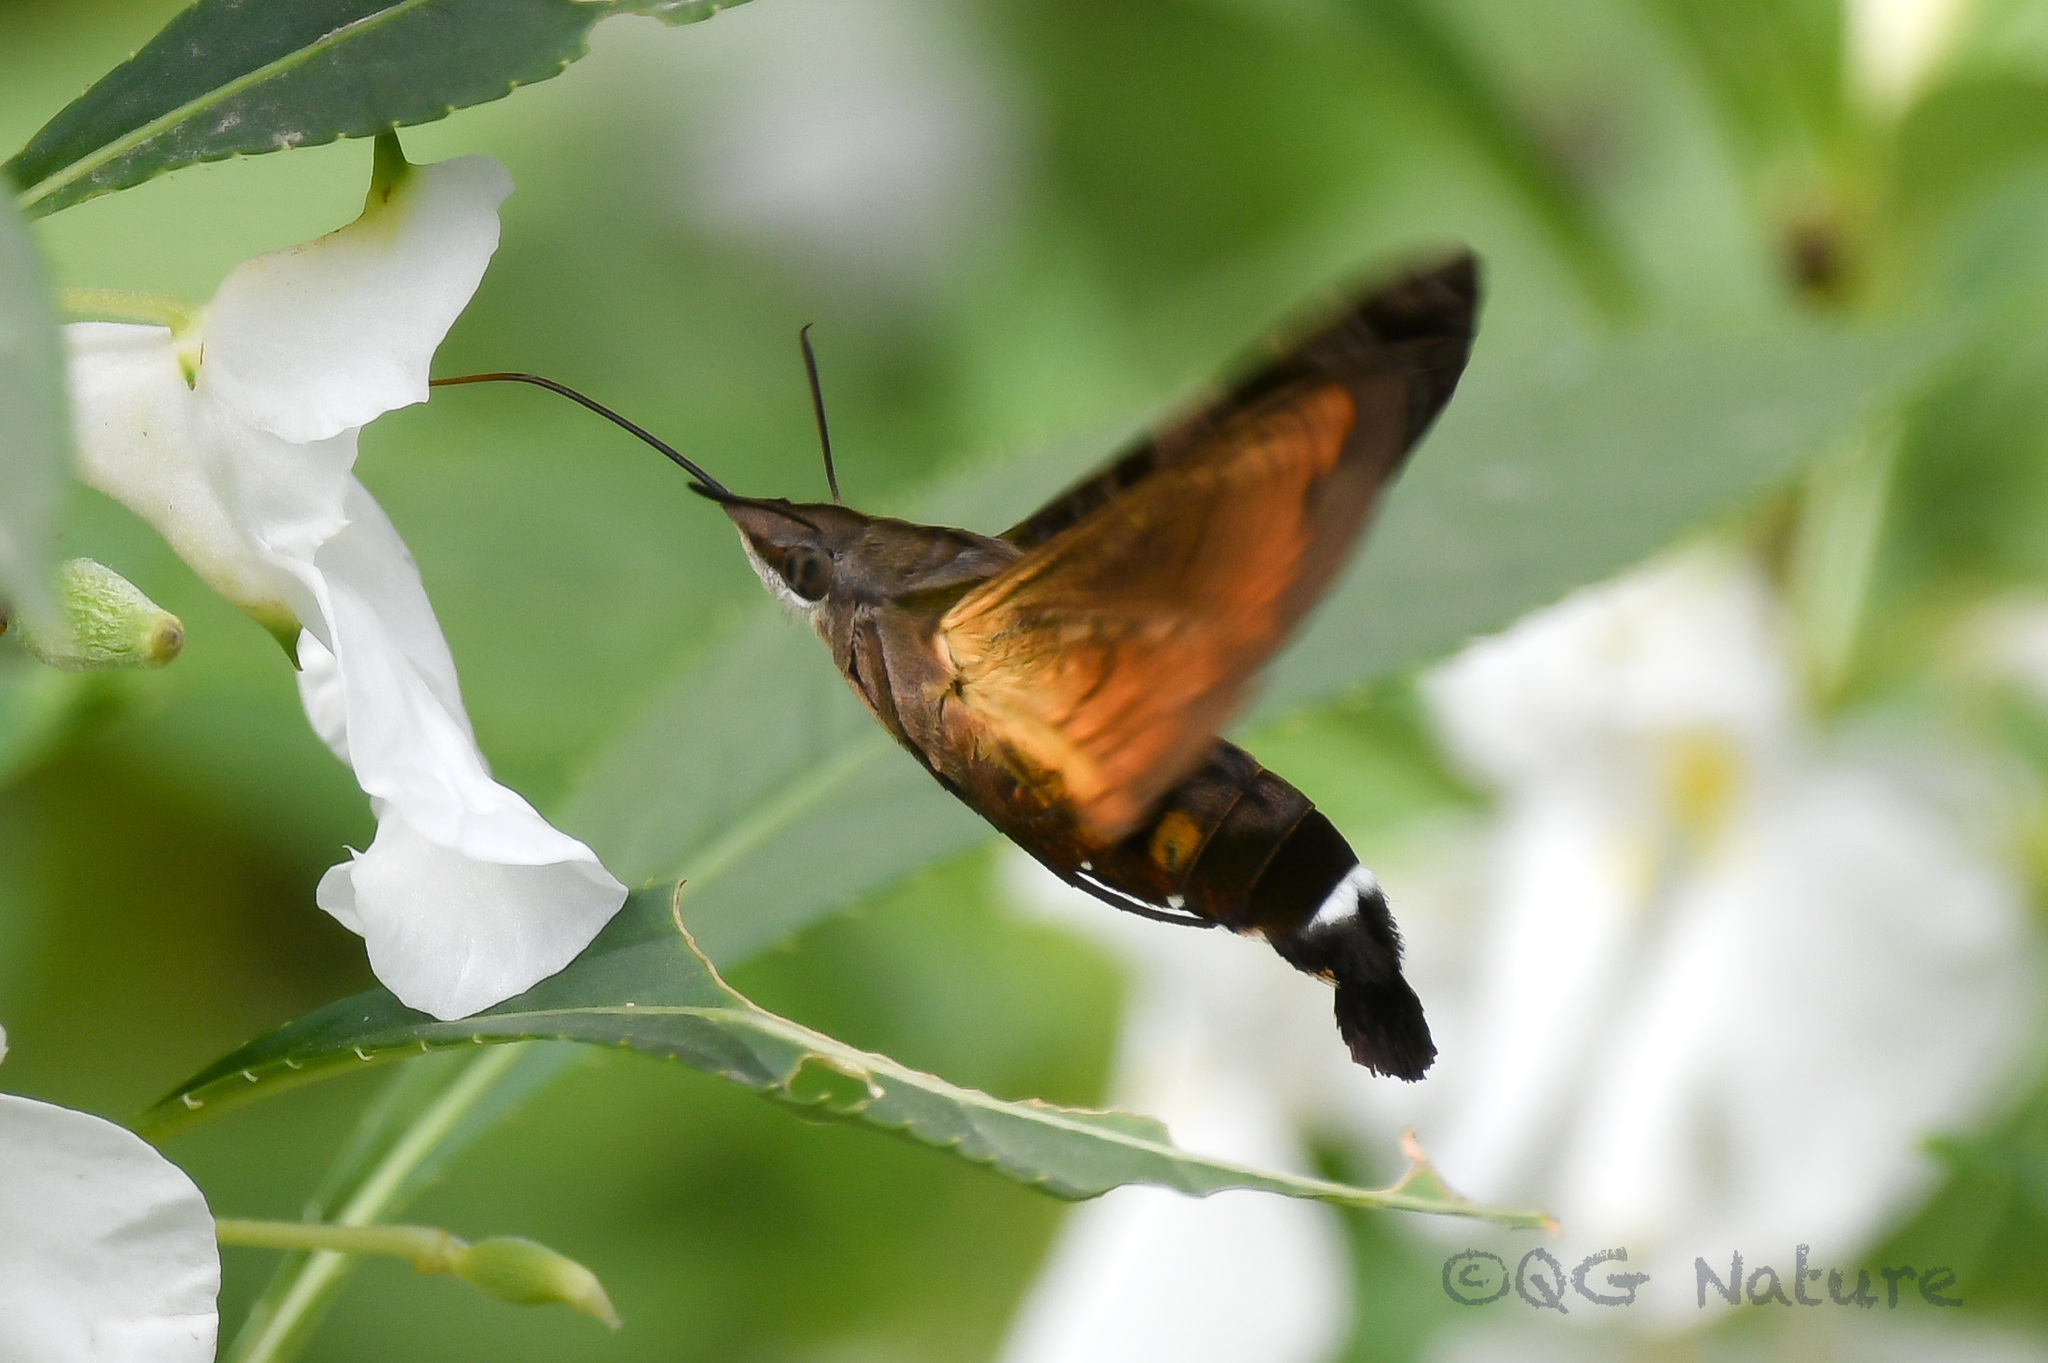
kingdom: Animalia
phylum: Arthropoda
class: Insecta
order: Lepidoptera
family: Sphingidae
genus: Macroglossum
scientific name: Macroglossum pyrrhosticta
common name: Hummingbird hawk moth
